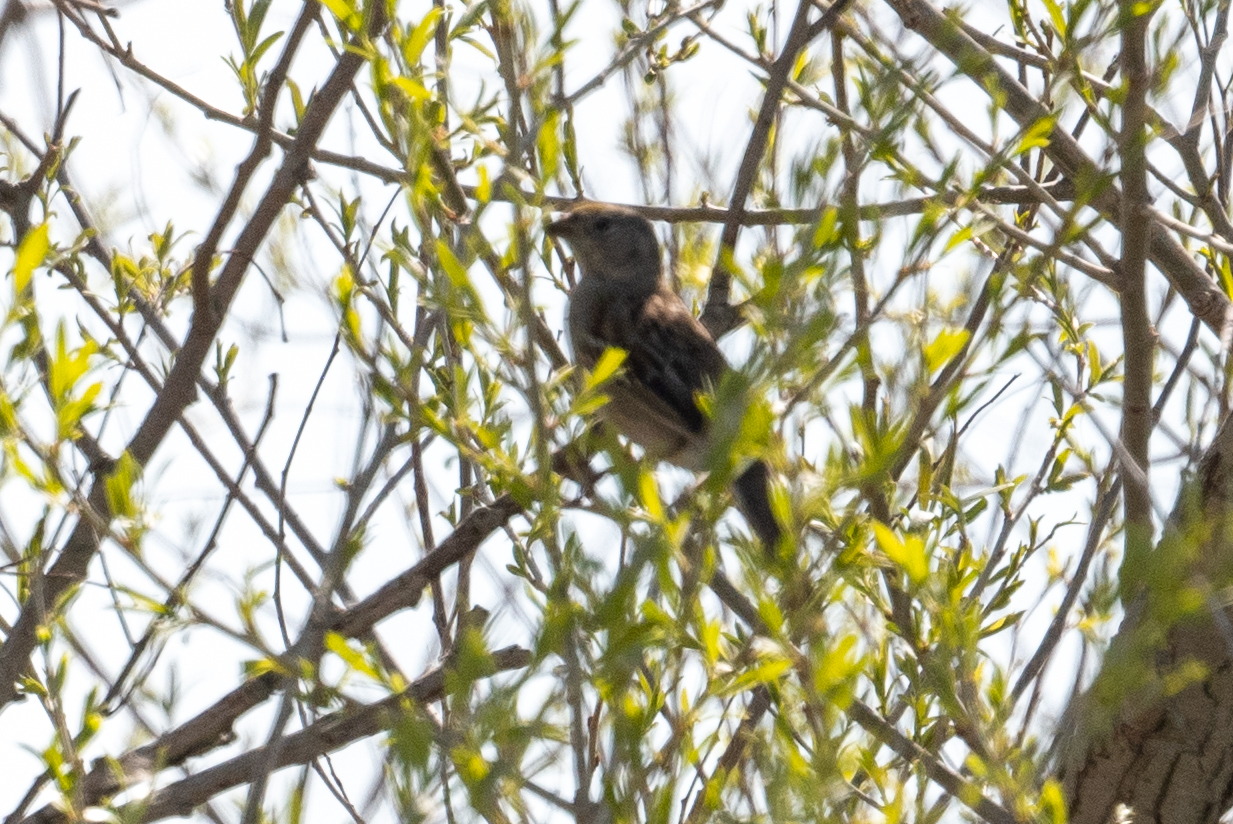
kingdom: Animalia
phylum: Chordata
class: Aves
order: Passeriformes
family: Passerellidae
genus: Zonotrichia
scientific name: Zonotrichia atricapilla
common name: Golden-crowned sparrow
